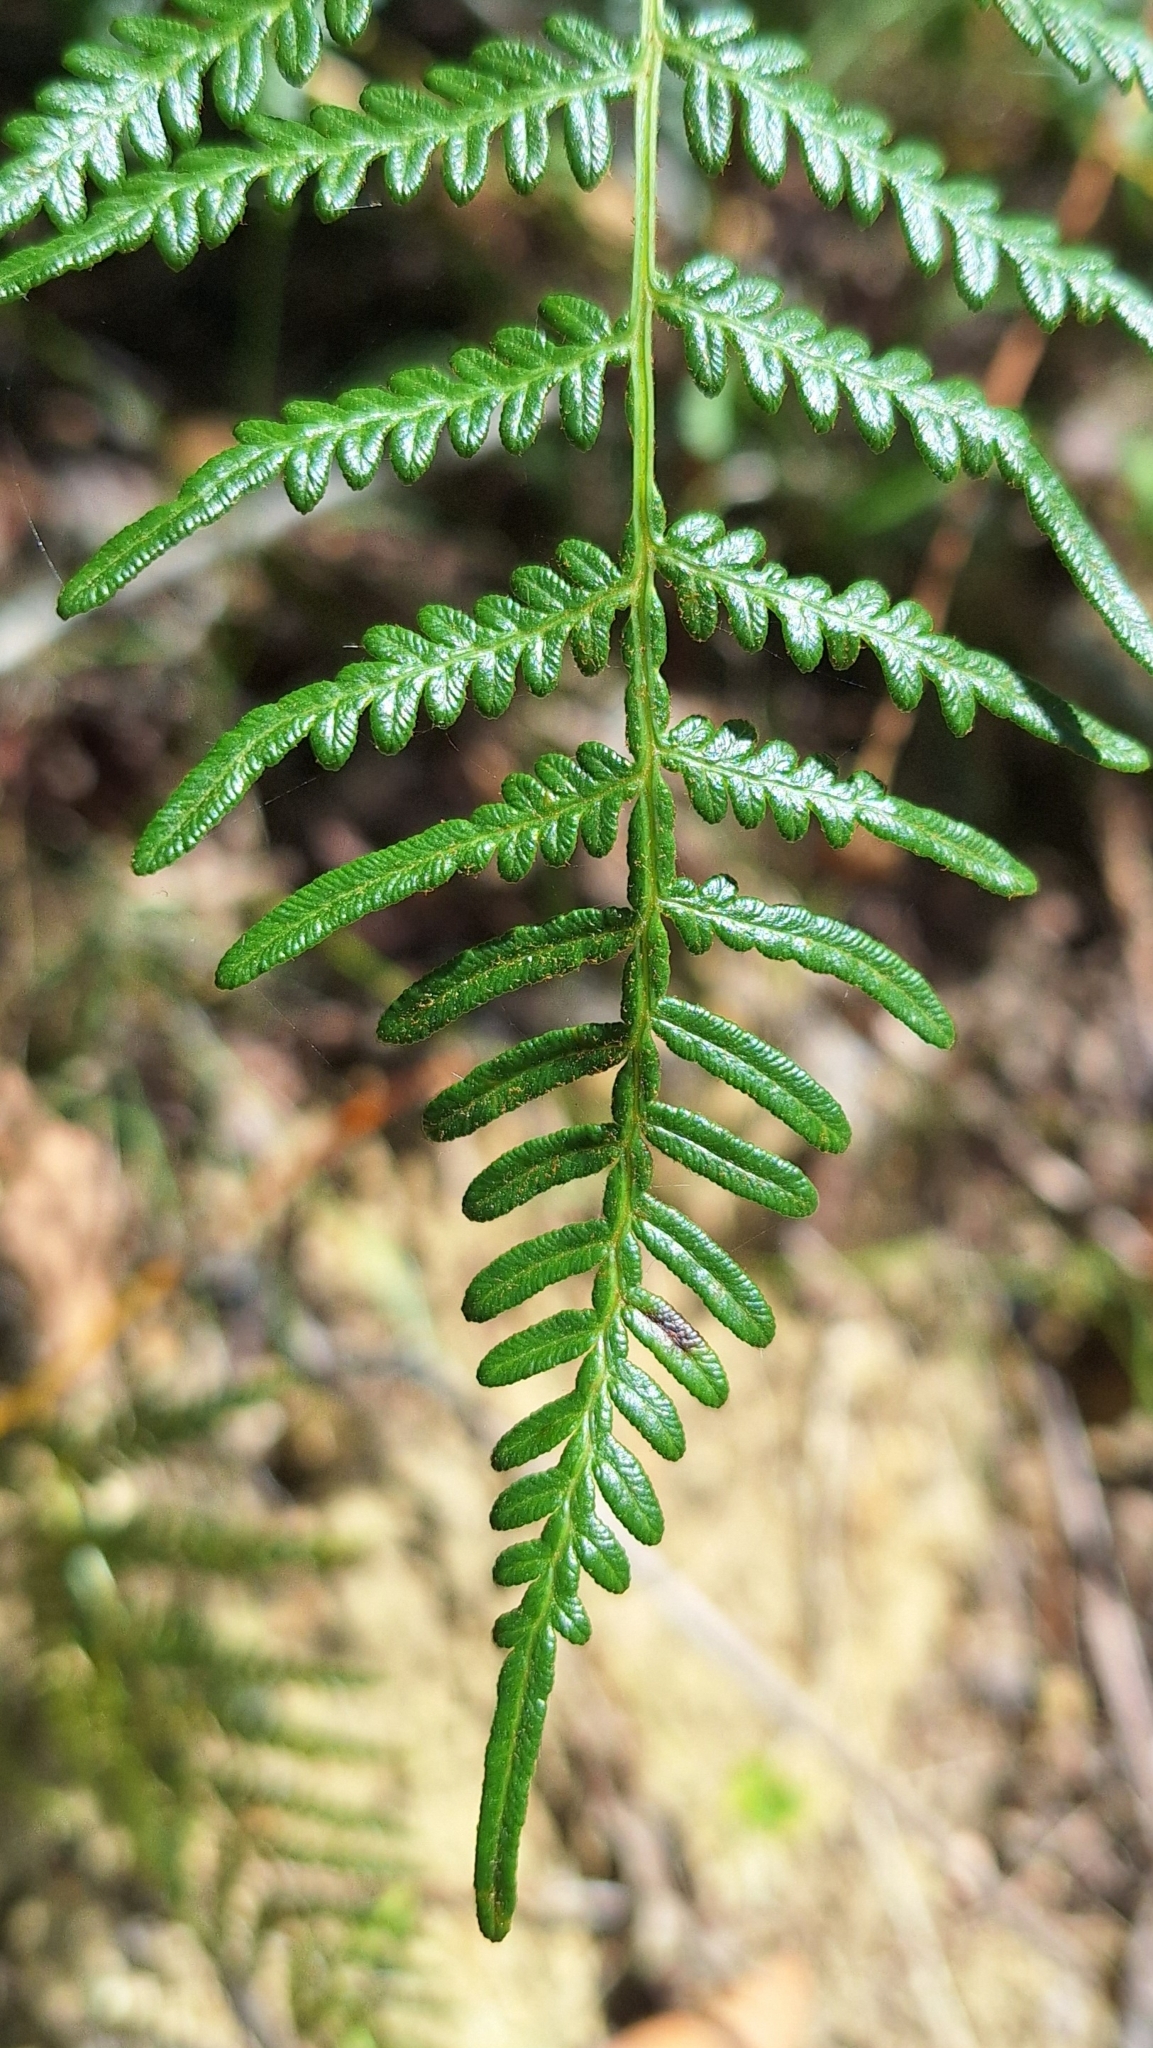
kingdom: Plantae
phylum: Tracheophyta
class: Polypodiopsida
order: Polypodiales
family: Dennstaedtiaceae
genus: Pteridium
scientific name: Pteridium esculentum
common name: Bracken fern
